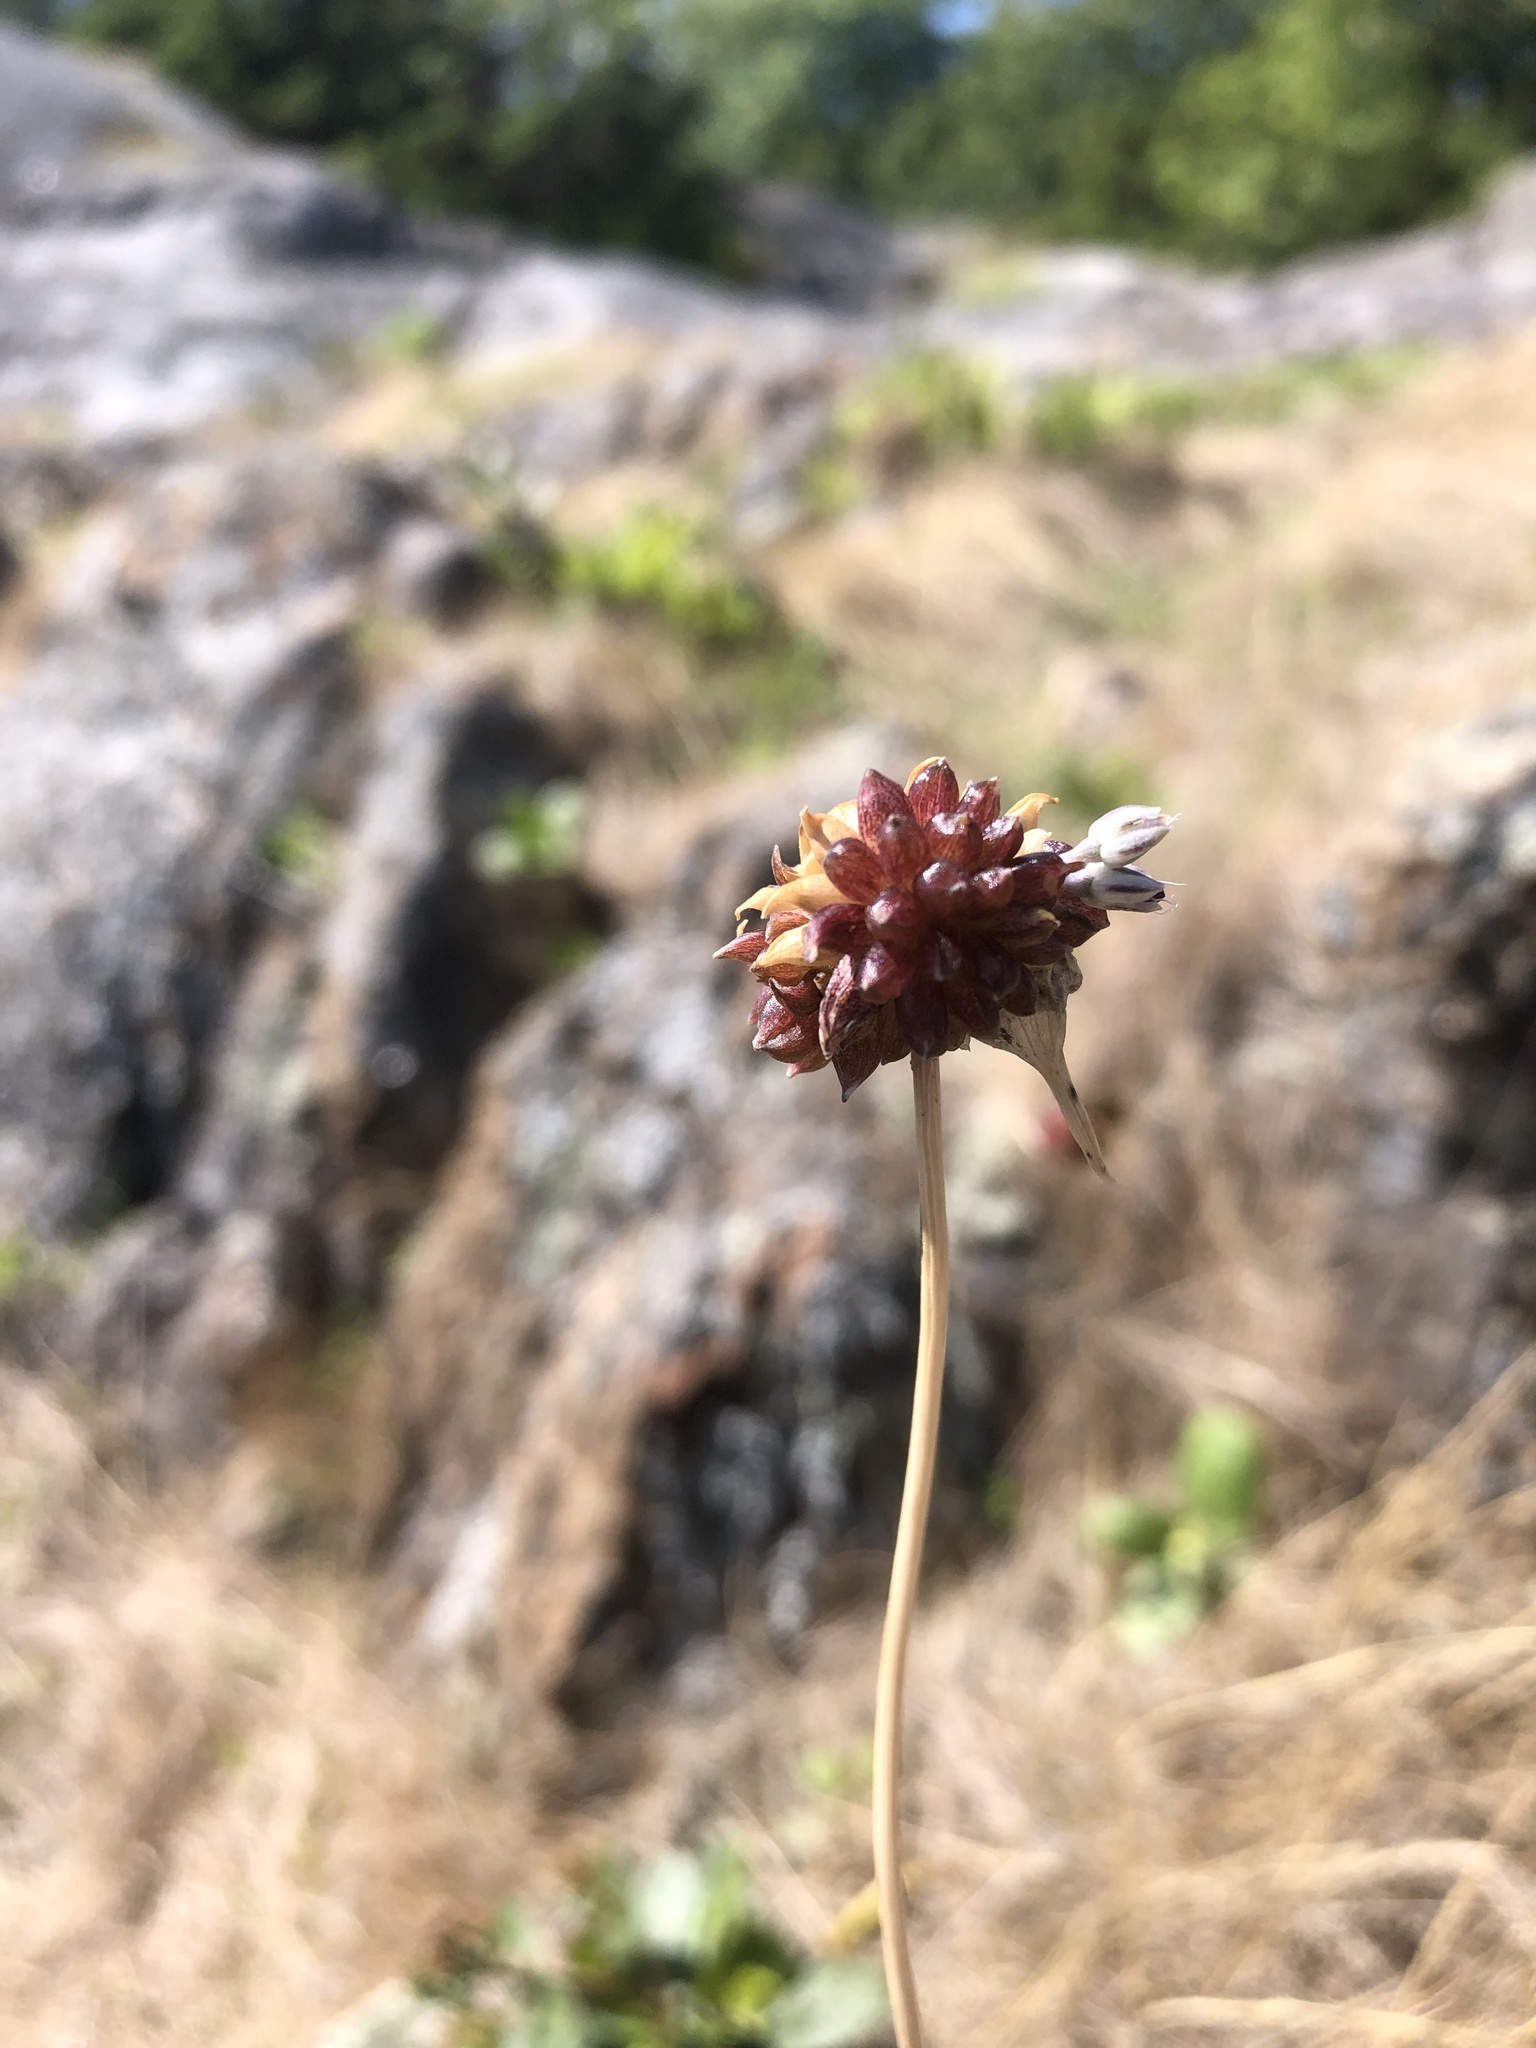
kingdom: Plantae
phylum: Tracheophyta
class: Liliopsida
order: Asparagales
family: Amaryllidaceae
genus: Allium
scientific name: Allium vineale
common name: Crow garlic
